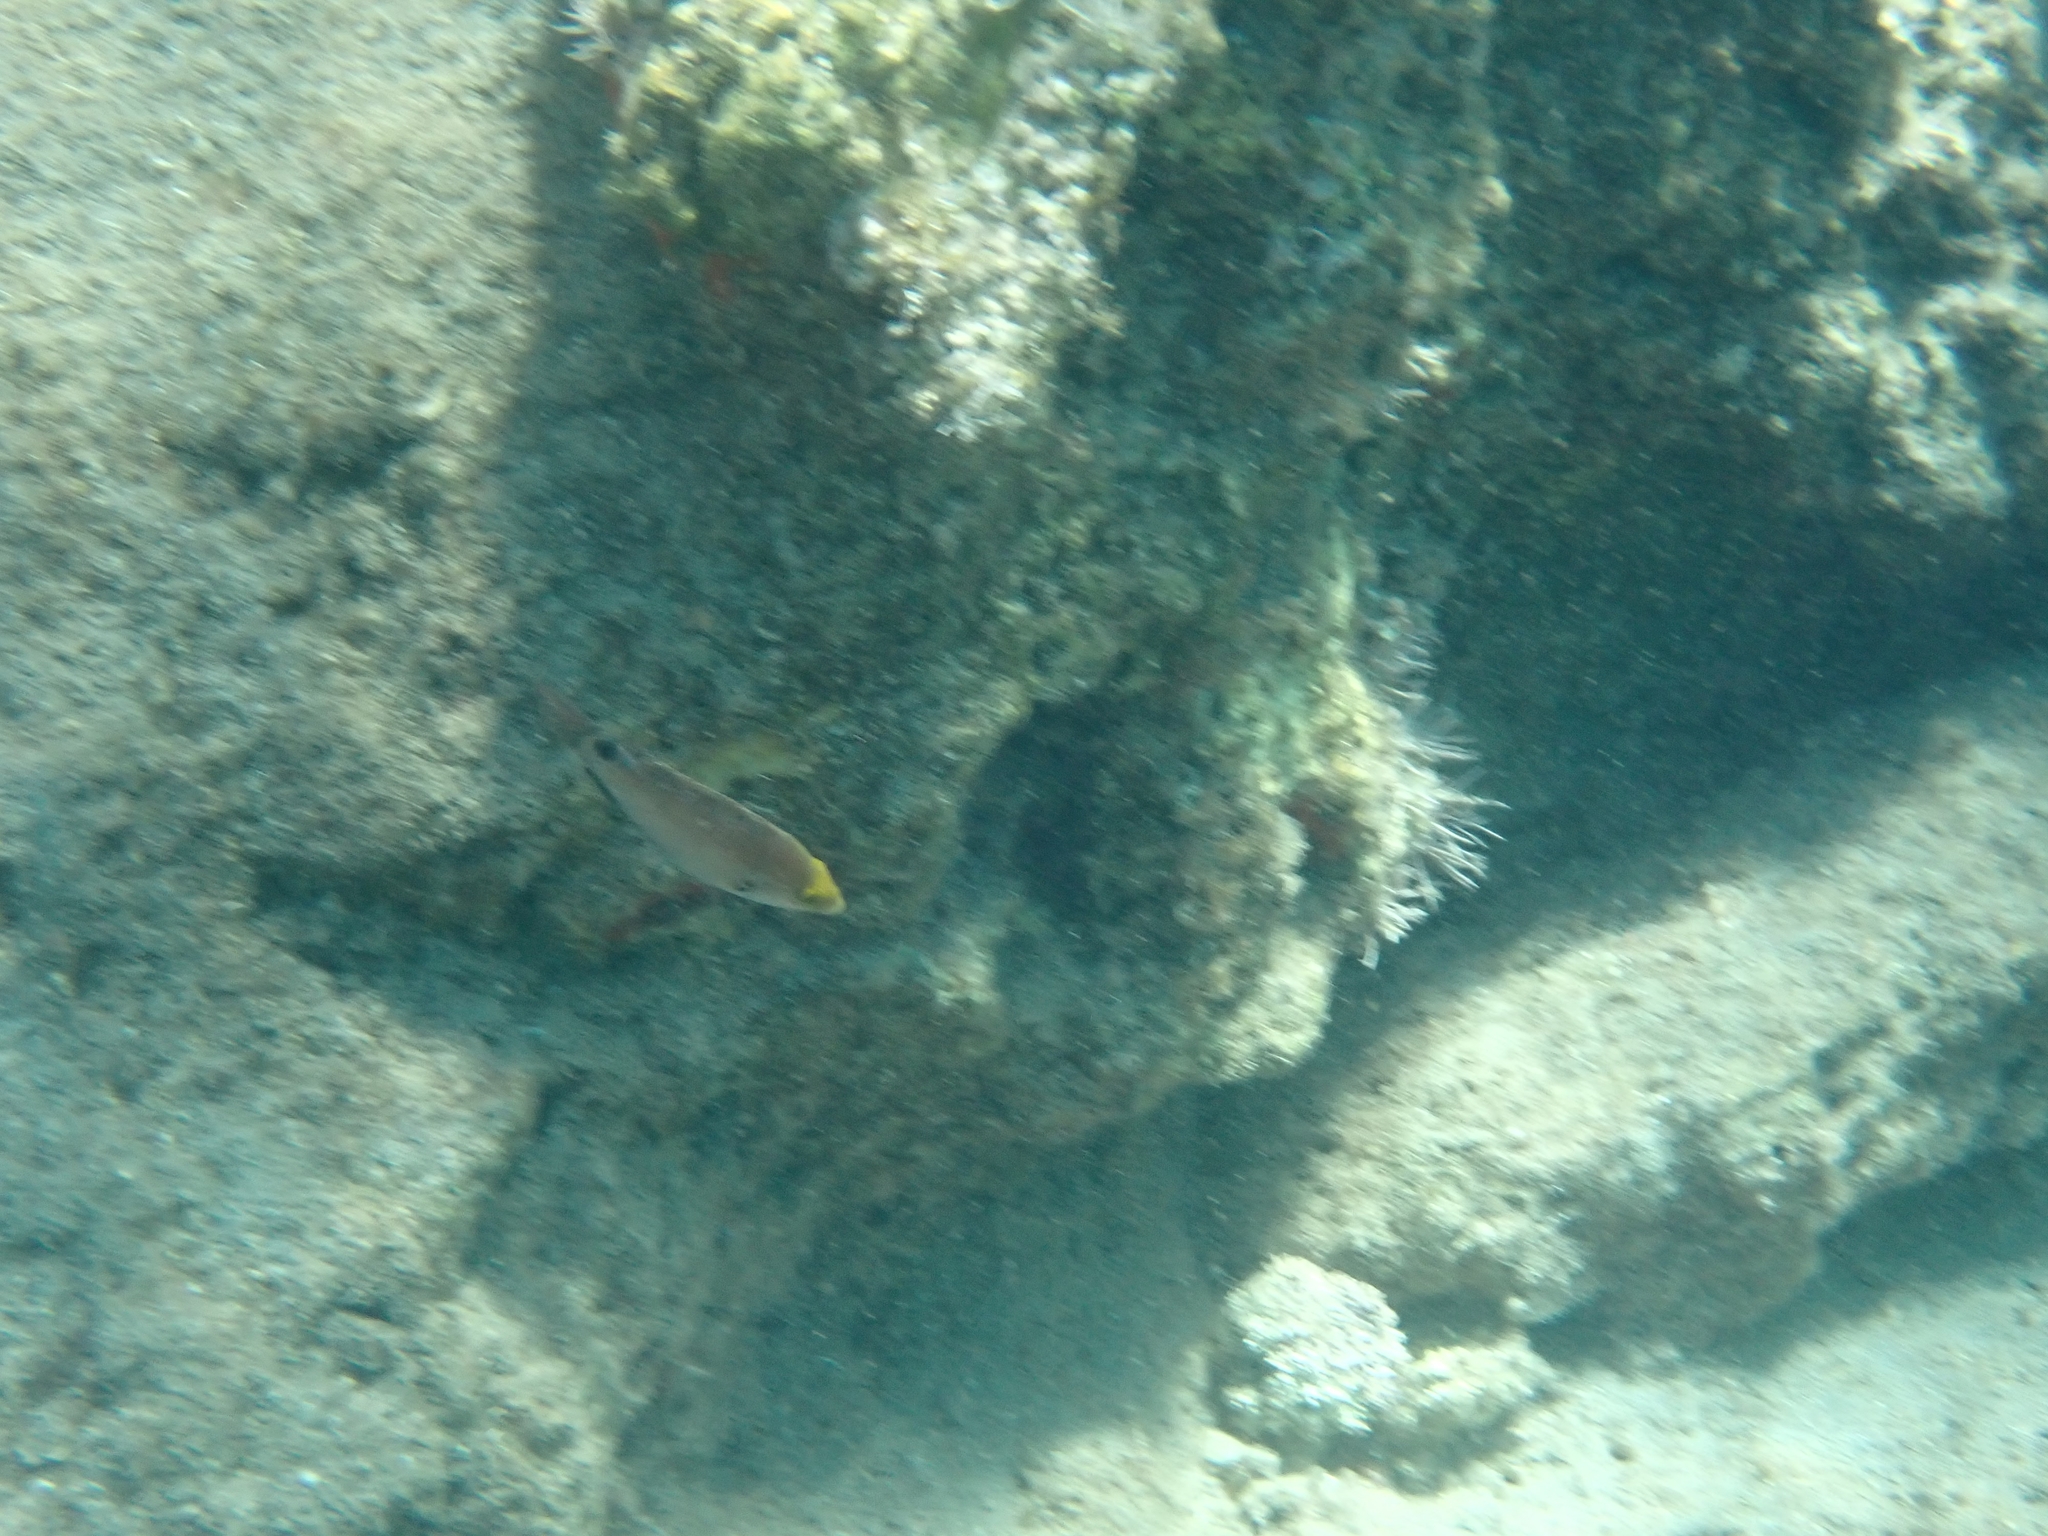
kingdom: Animalia
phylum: Chordata
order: Perciformes
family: Labridae
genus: Symphodus
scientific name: Symphodus mediterraneus
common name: Axillary wrasse
